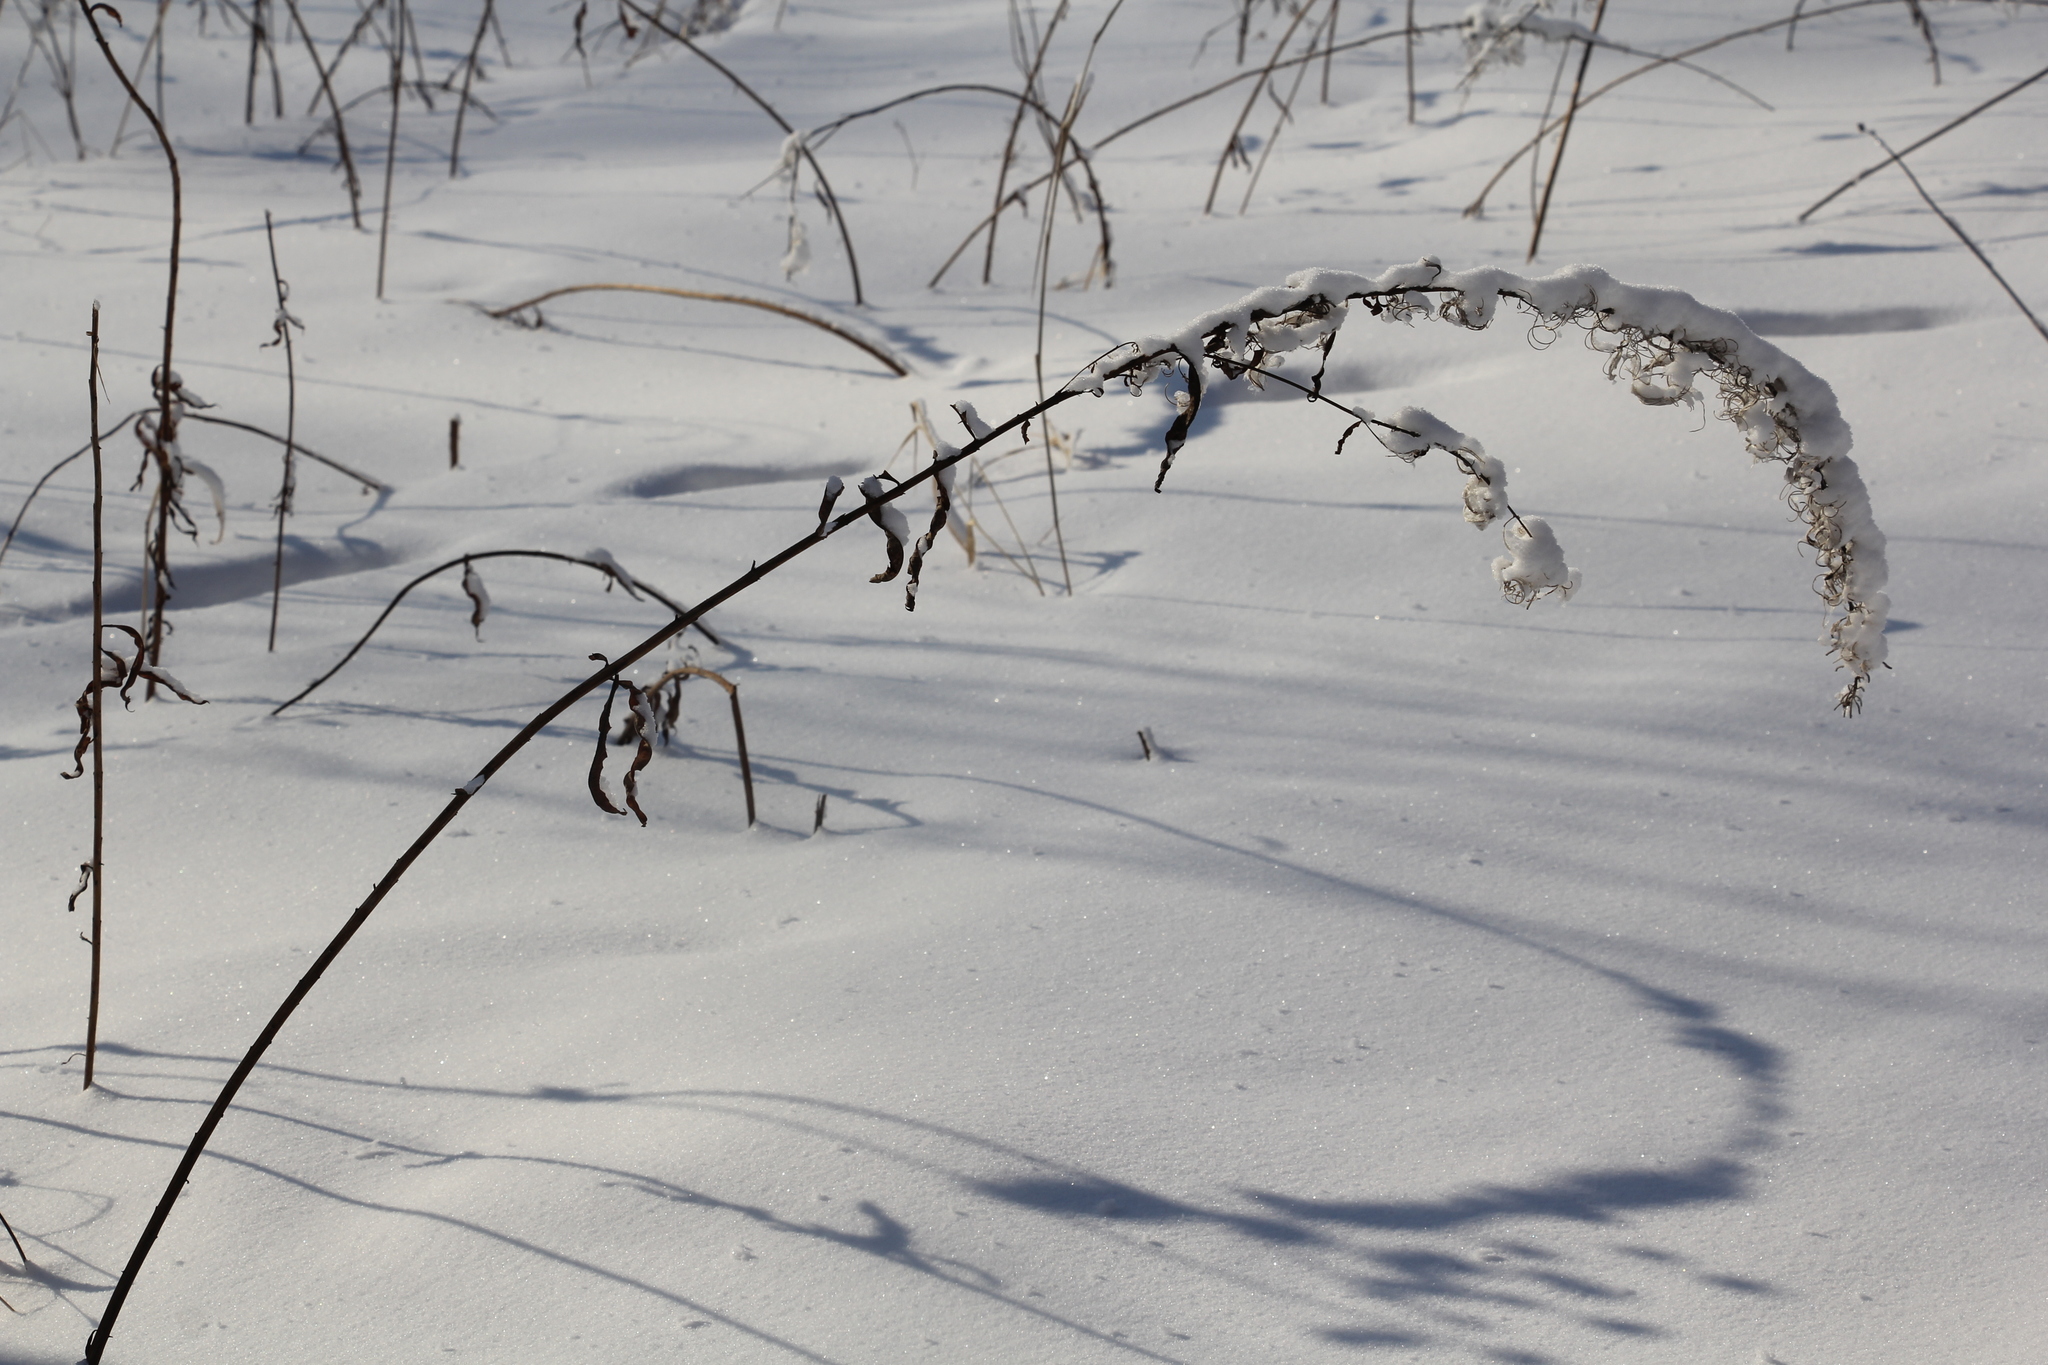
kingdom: Plantae
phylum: Tracheophyta
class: Magnoliopsida
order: Myrtales
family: Onagraceae
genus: Chamaenerion
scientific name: Chamaenerion angustifolium
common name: Fireweed
